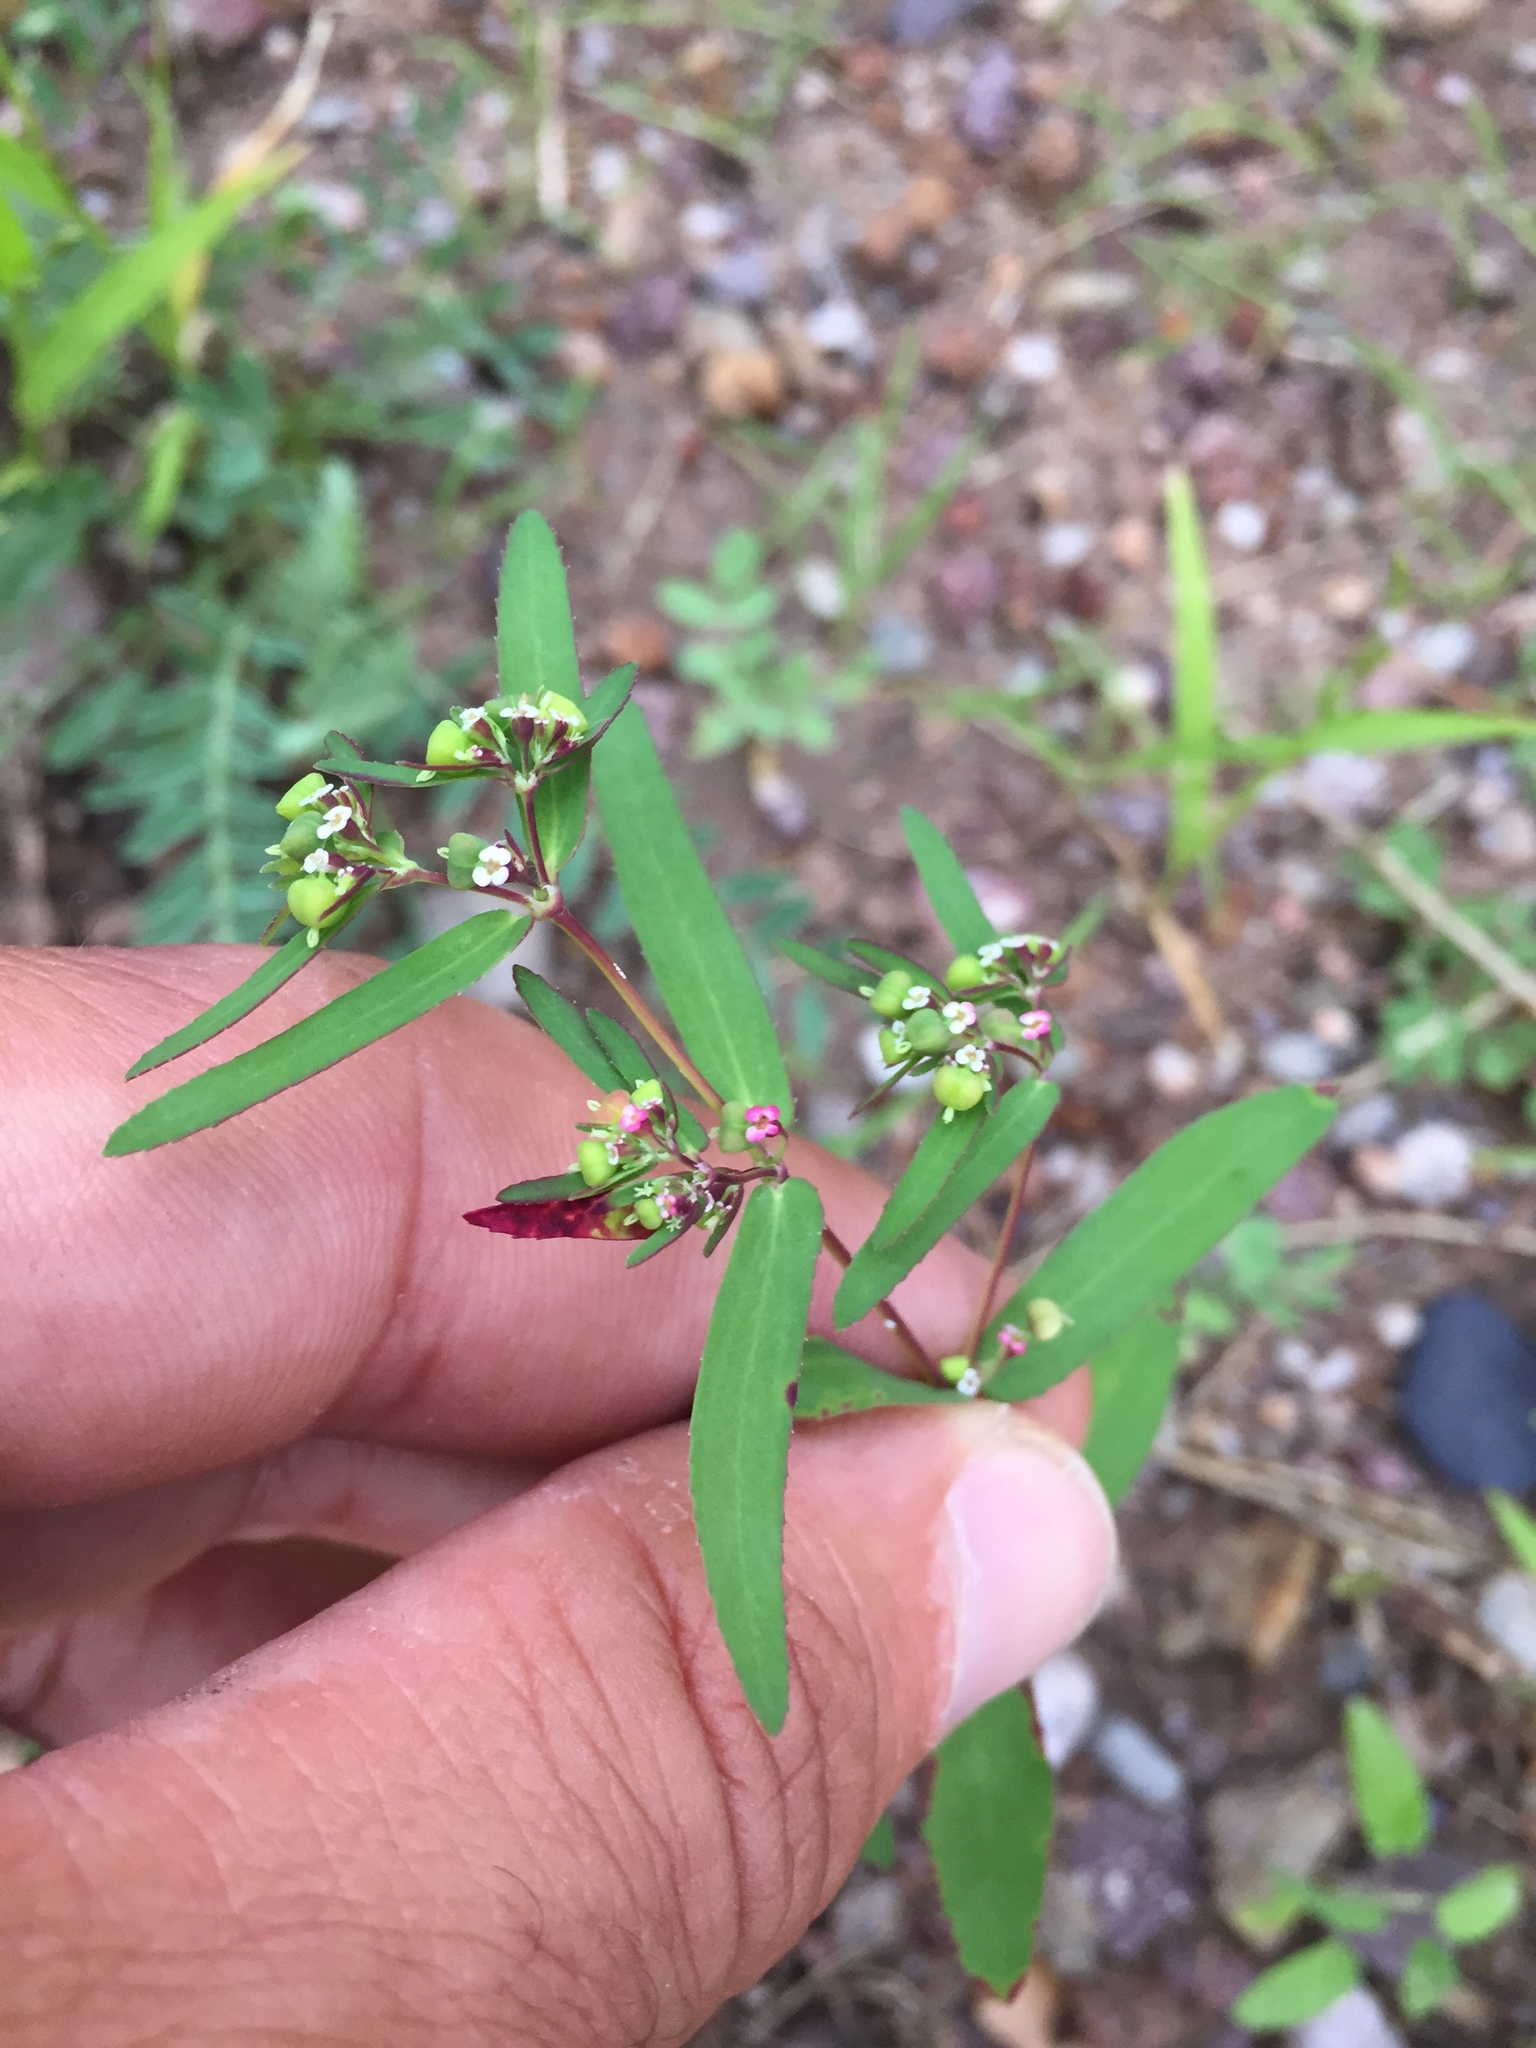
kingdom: Plantae
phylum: Tracheophyta
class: Magnoliopsida
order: Malpighiales
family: Euphorbiaceae
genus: Euphorbia
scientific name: Euphorbia hyssopifolia
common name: Hyssopleaf sandmat
